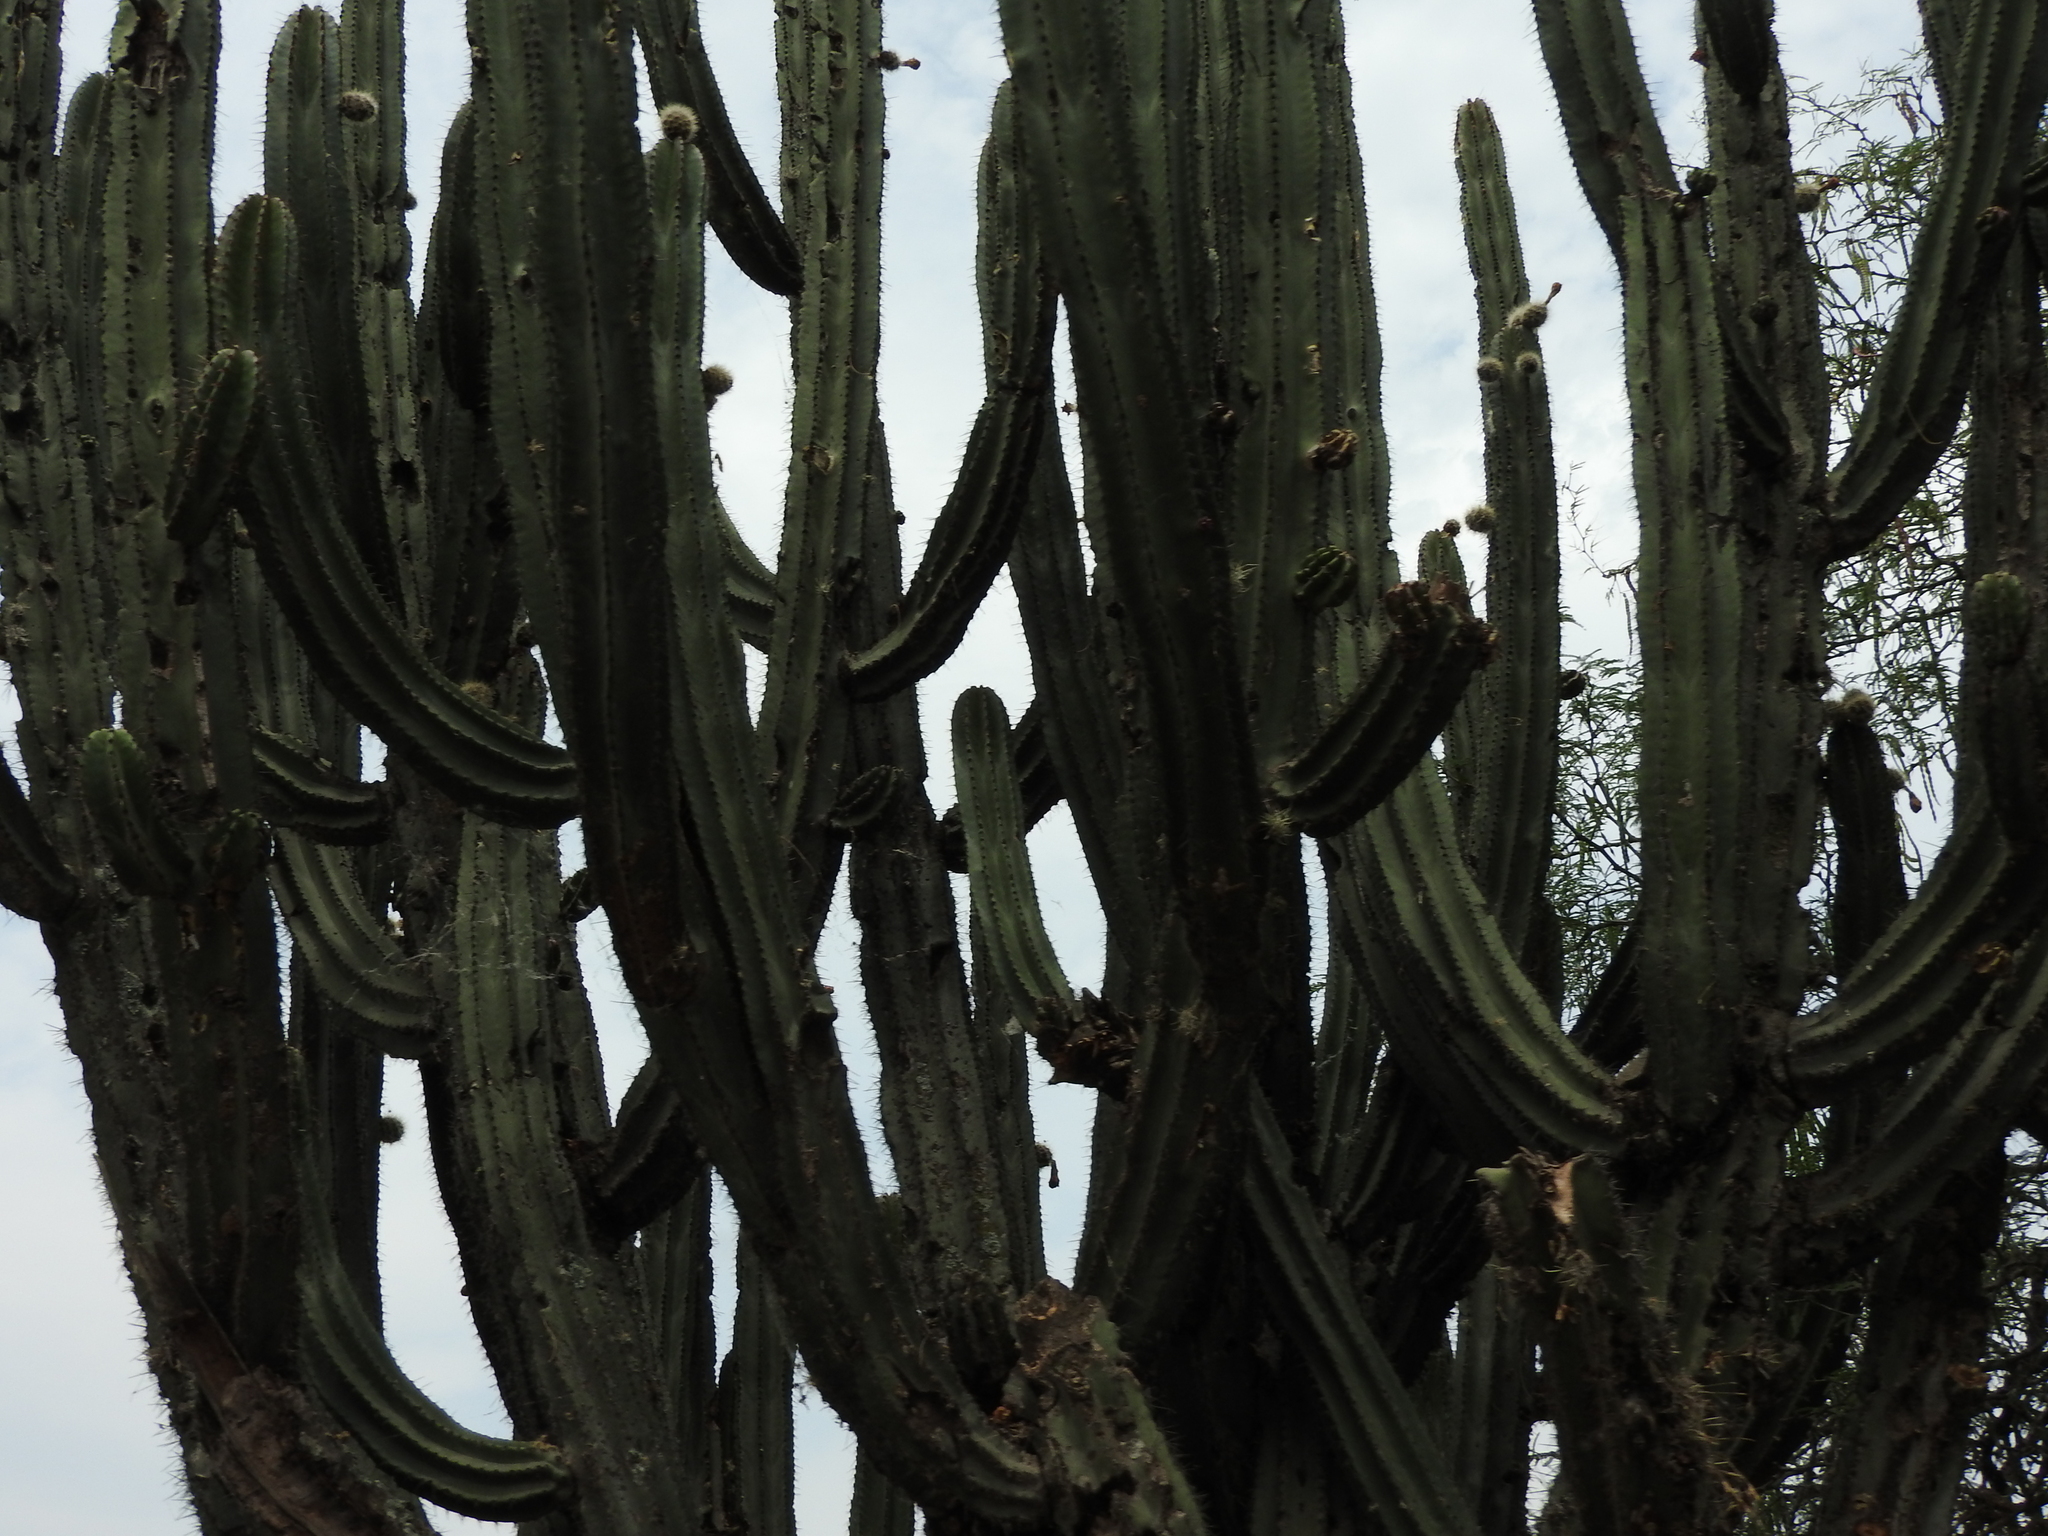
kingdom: Plantae
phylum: Tracheophyta
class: Magnoliopsida
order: Caryophyllales
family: Cactaceae
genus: Stenocereus
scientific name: Stenocereus queretaroensis
